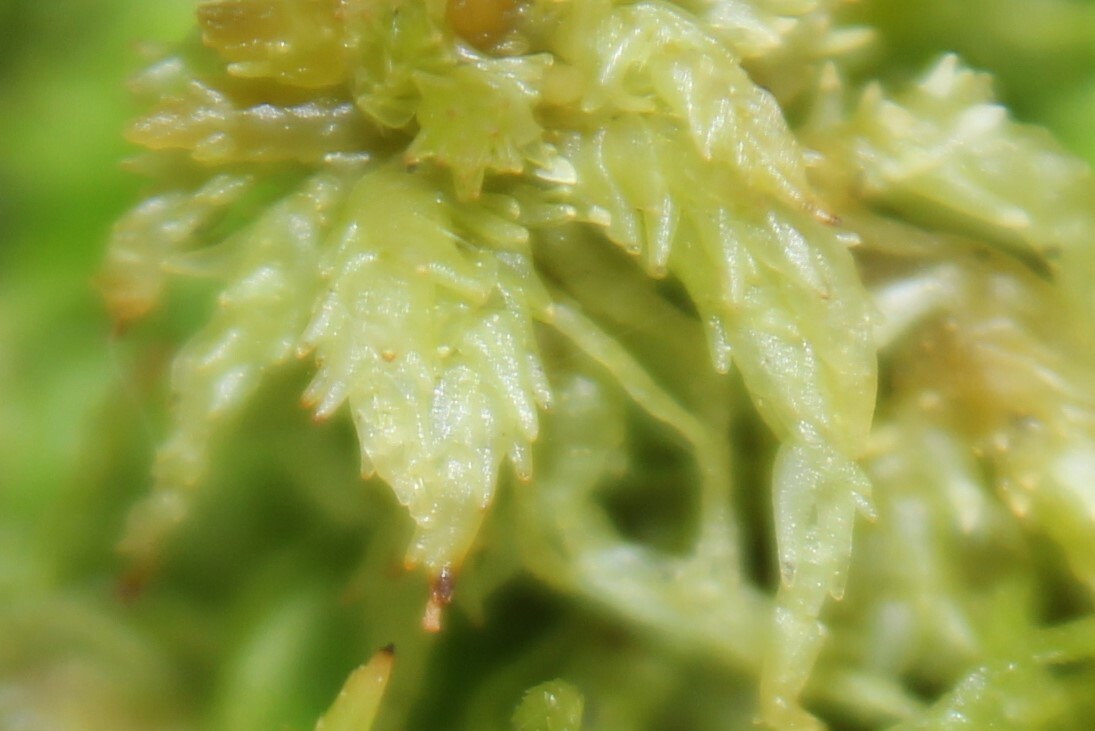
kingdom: Plantae
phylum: Bryophyta
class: Sphagnopsida
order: Sphagnales
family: Sphagnaceae
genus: Sphagnum
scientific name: Sphagnum girgensohnii
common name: Girgensohn's peat moss
